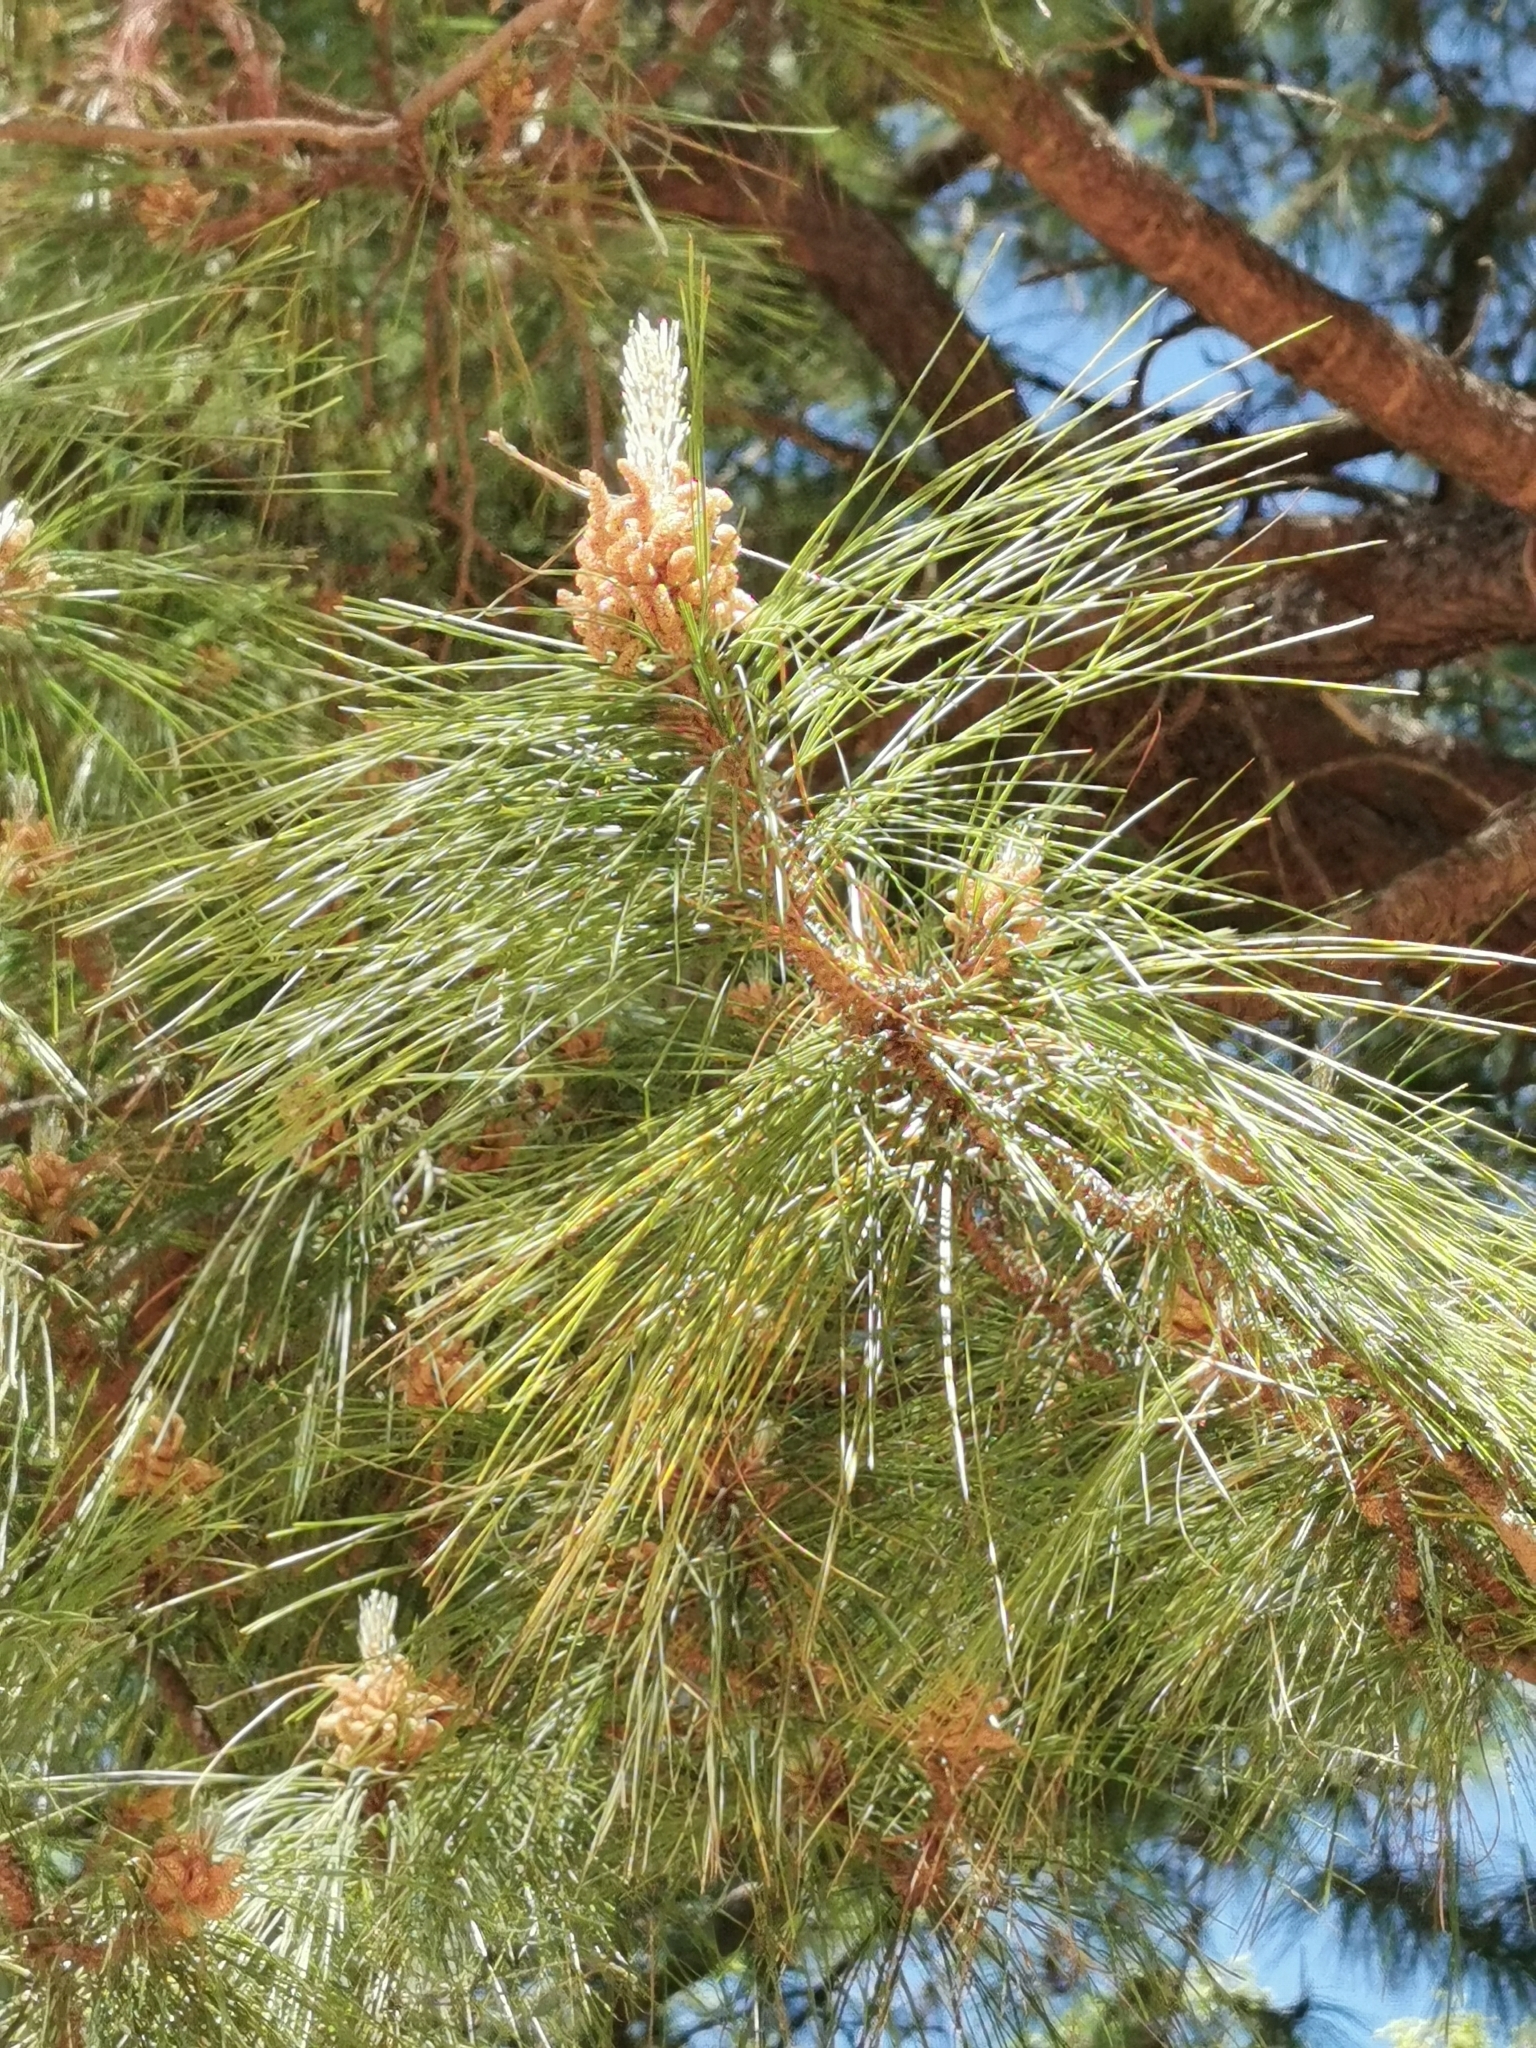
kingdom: Plantae
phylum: Tracheophyta
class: Pinopsida
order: Pinales
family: Pinaceae
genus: Pinus
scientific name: Pinus herrerae
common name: Herrera's pine
